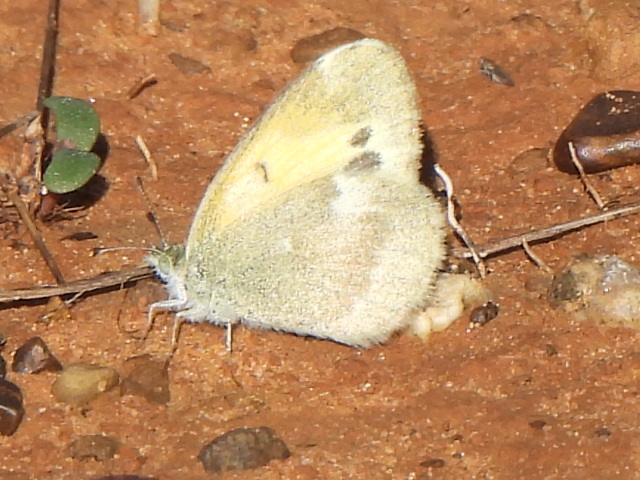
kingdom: Animalia
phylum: Arthropoda
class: Insecta
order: Lepidoptera
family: Pieridae
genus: Nathalis
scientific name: Nathalis iole
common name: Dainty sulphur
